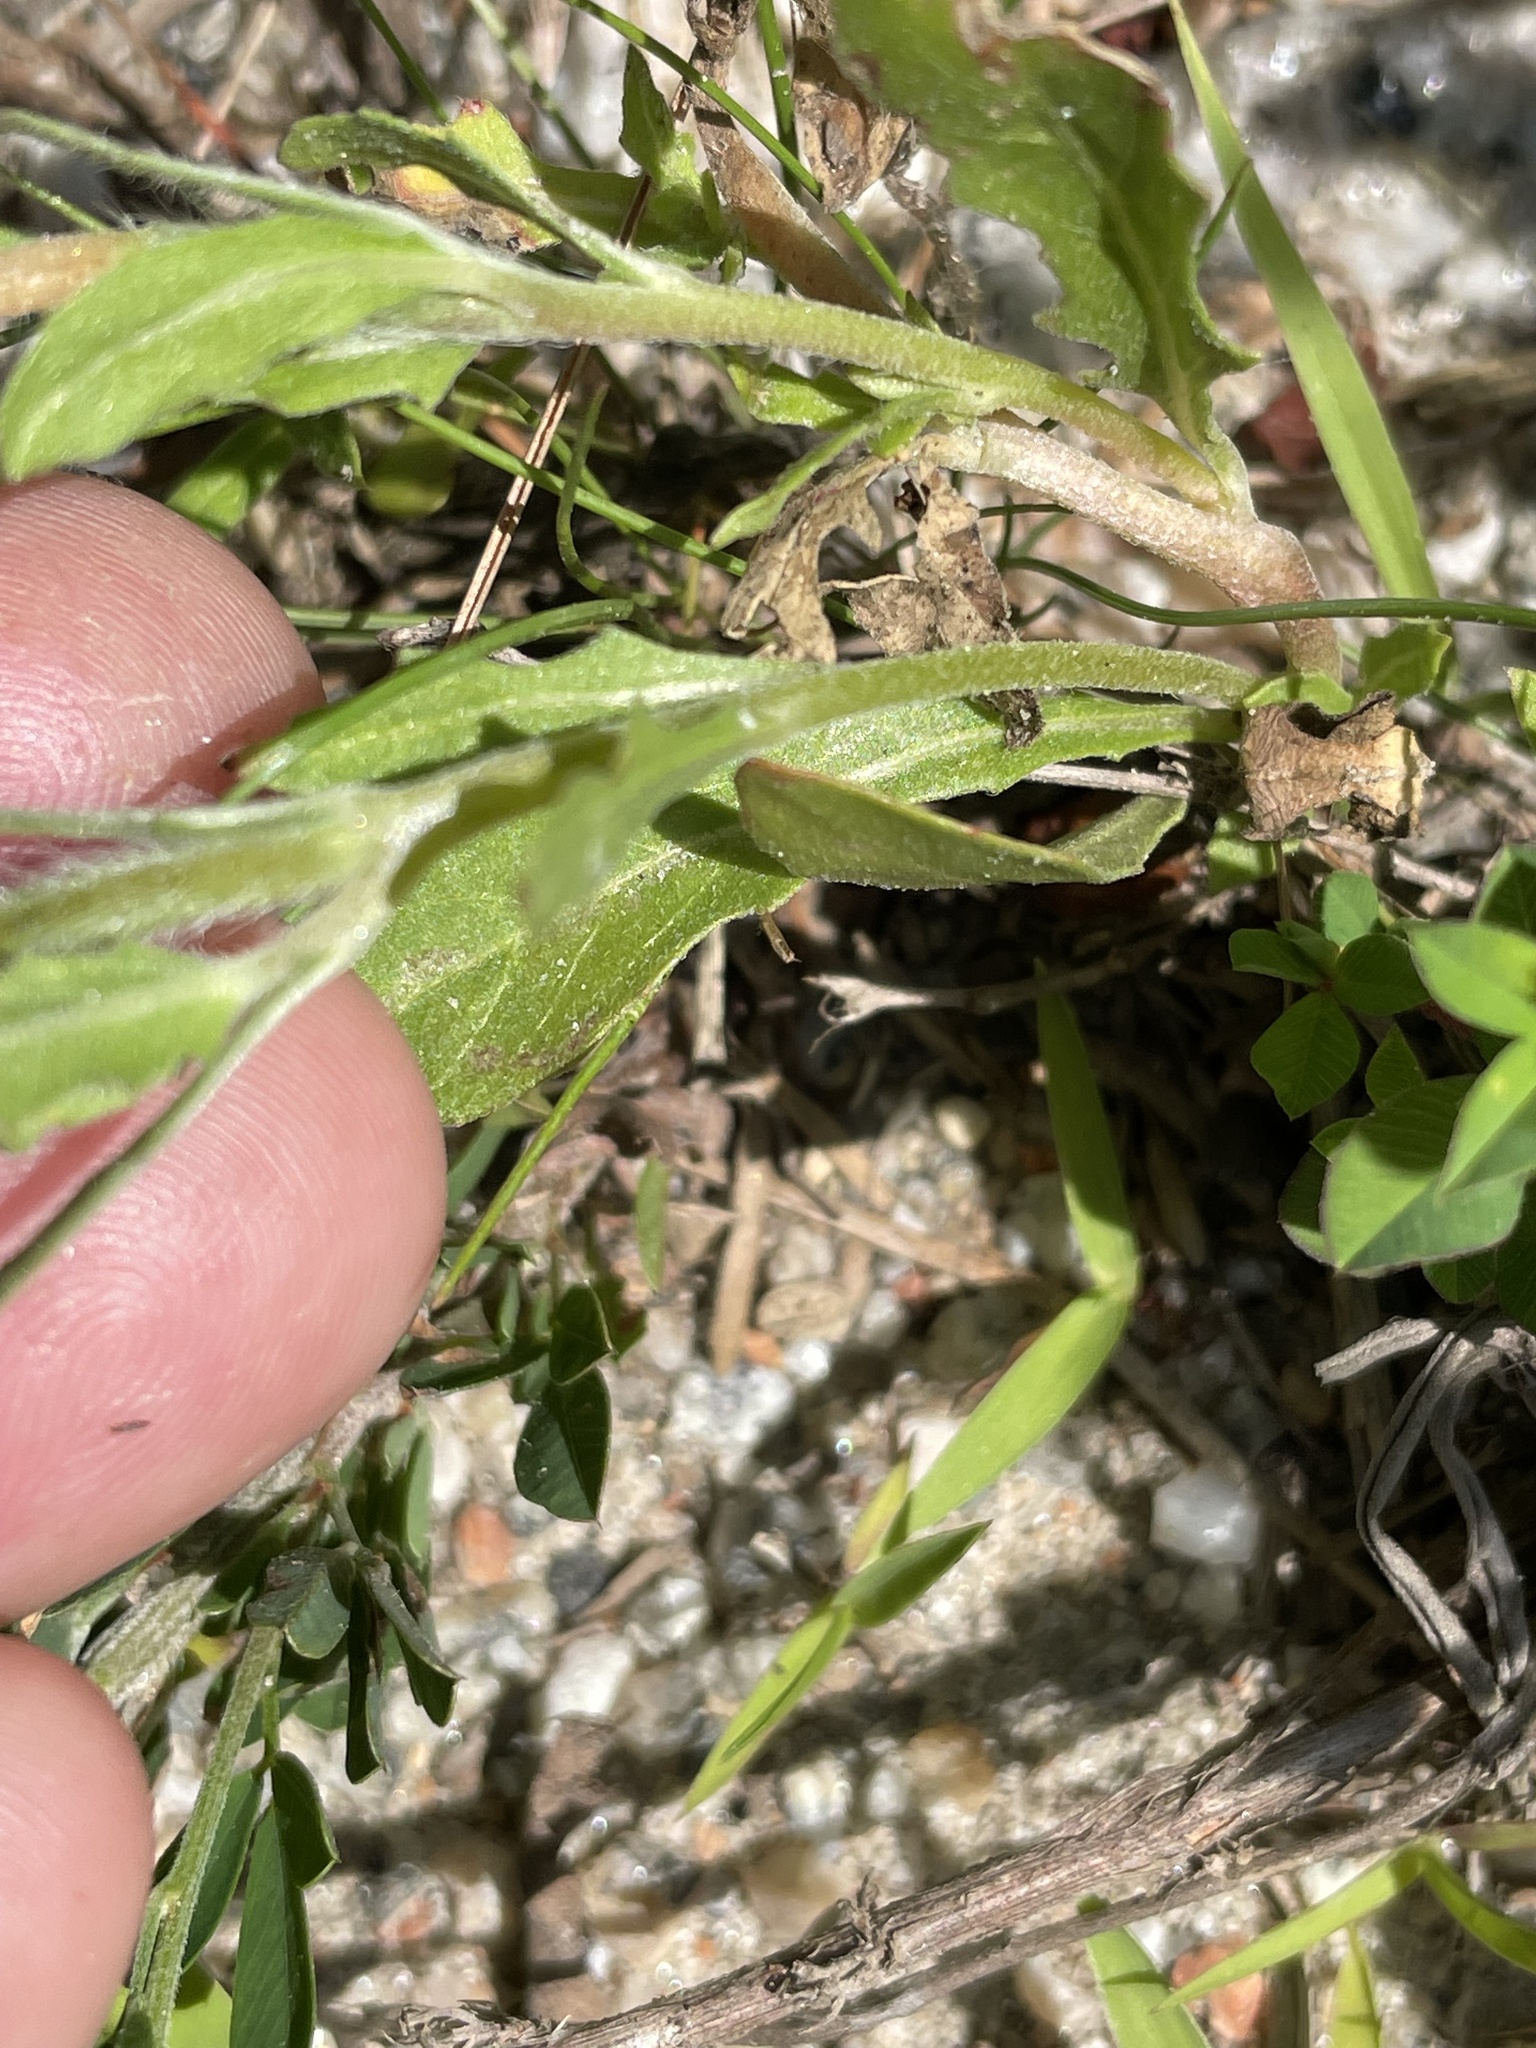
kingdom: Plantae
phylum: Tracheophyta
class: Magnoliopsida
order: Myrtales
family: Onagraceae
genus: Oenothera
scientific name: Oenothera laciniata
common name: Cut-leaved evening-primrose
